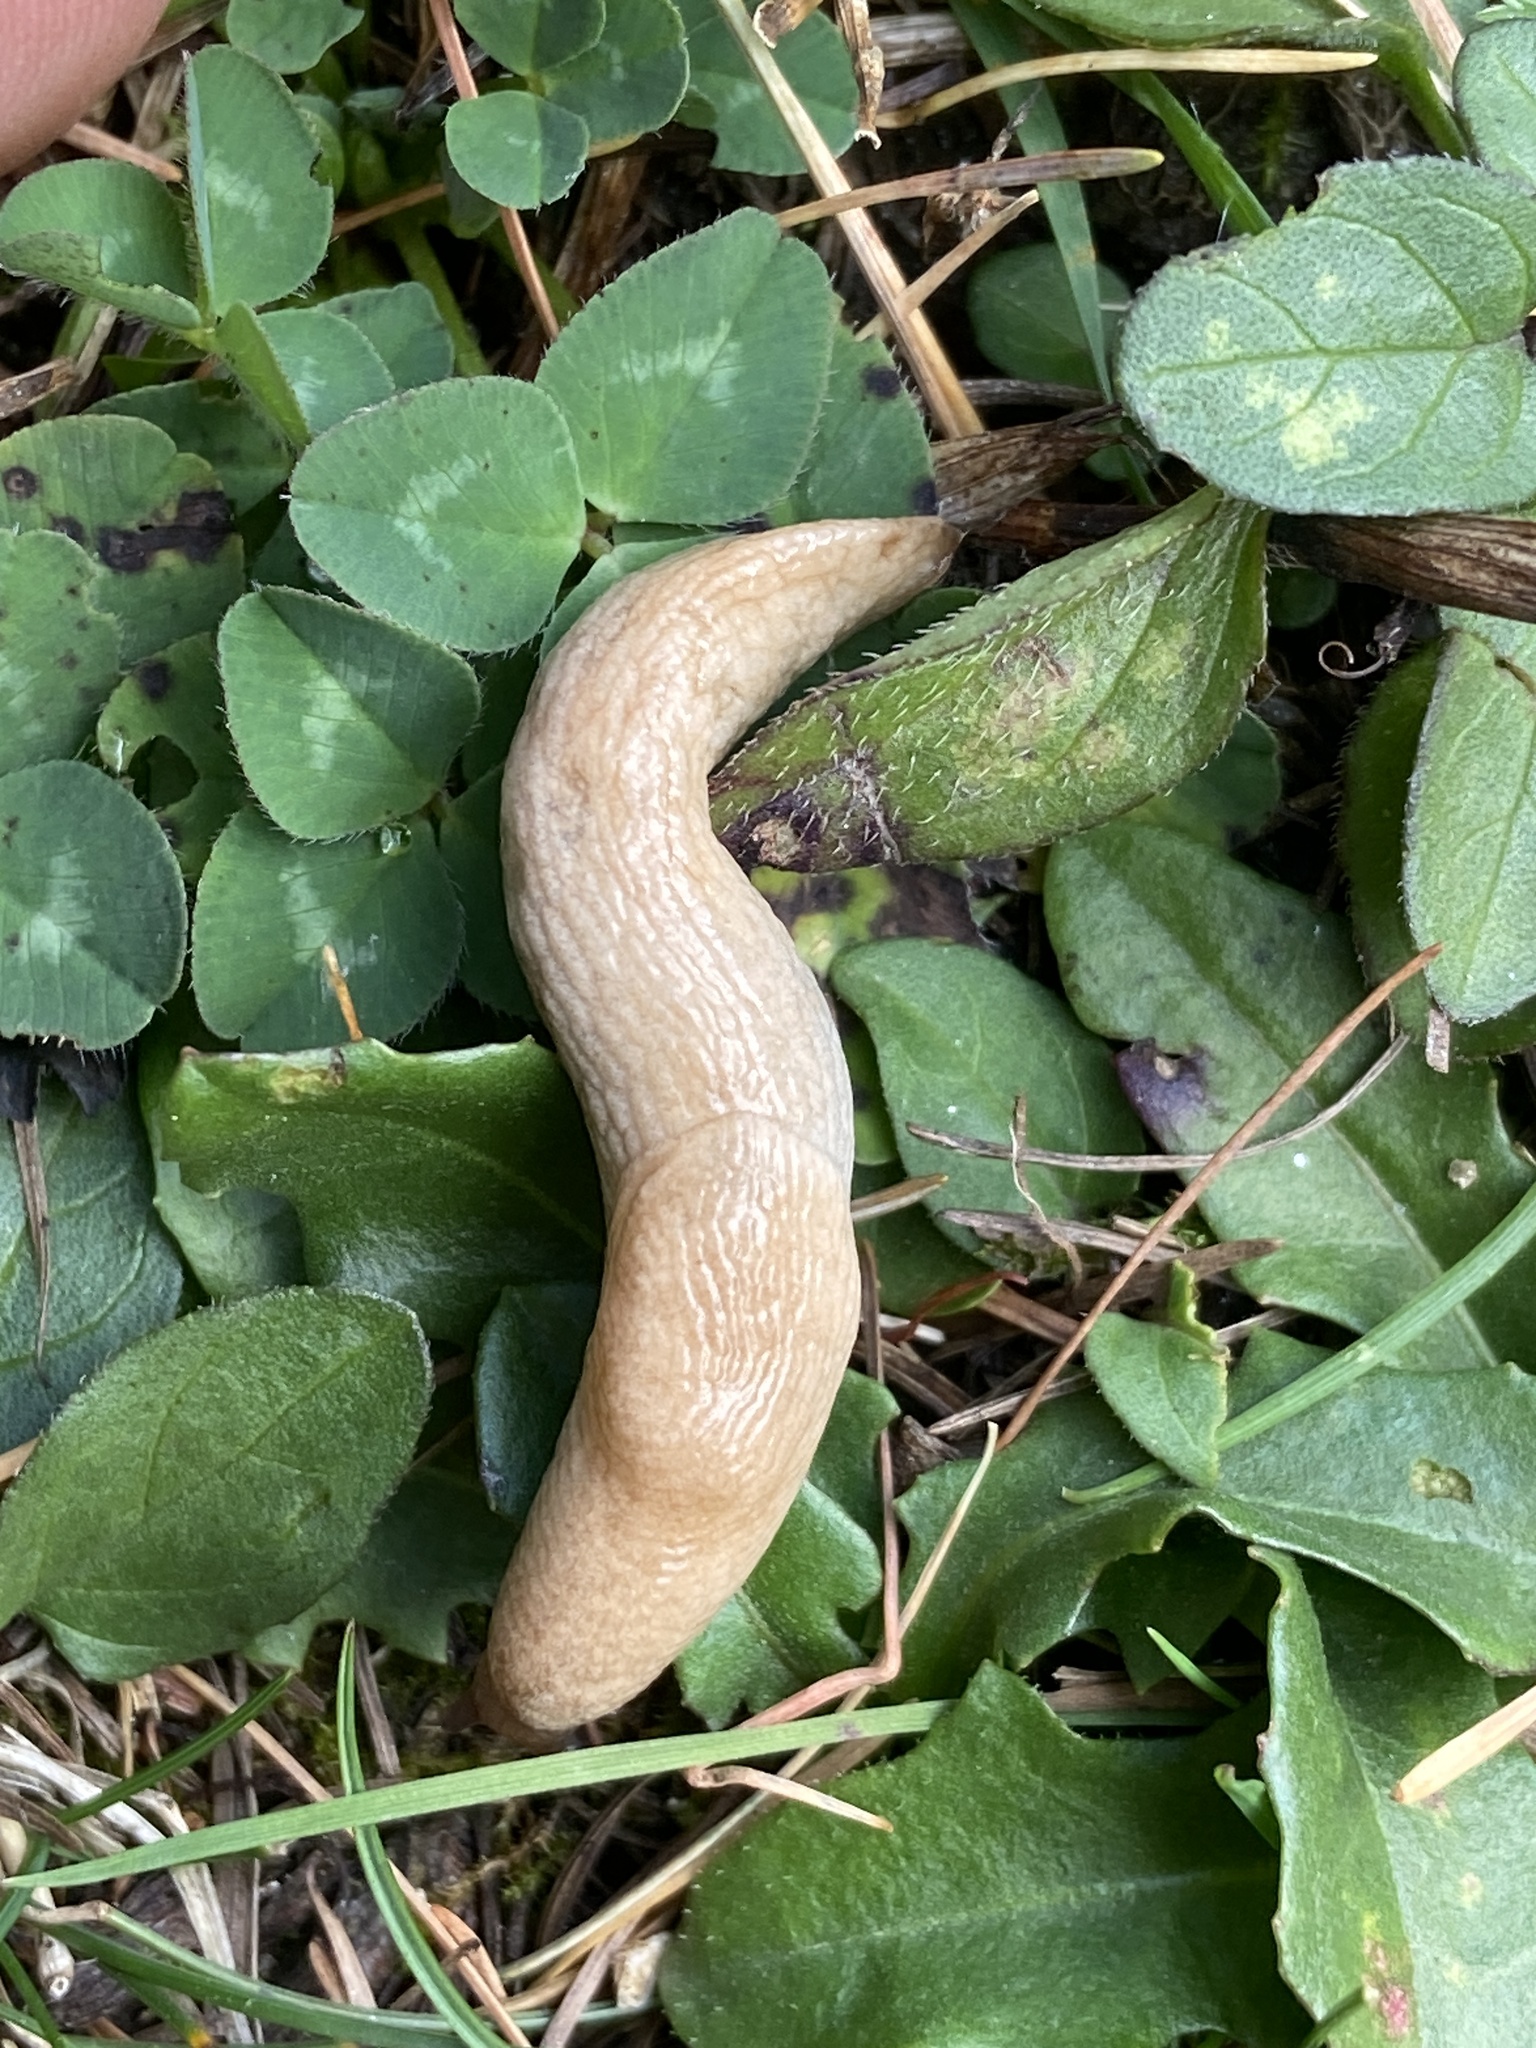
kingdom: Animalia
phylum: Mollusca
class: Gastropoda
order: Stylommatophora
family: Agriolimacidae
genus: Deroceras
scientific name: Deroceras reticulatum
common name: Gray field slug
